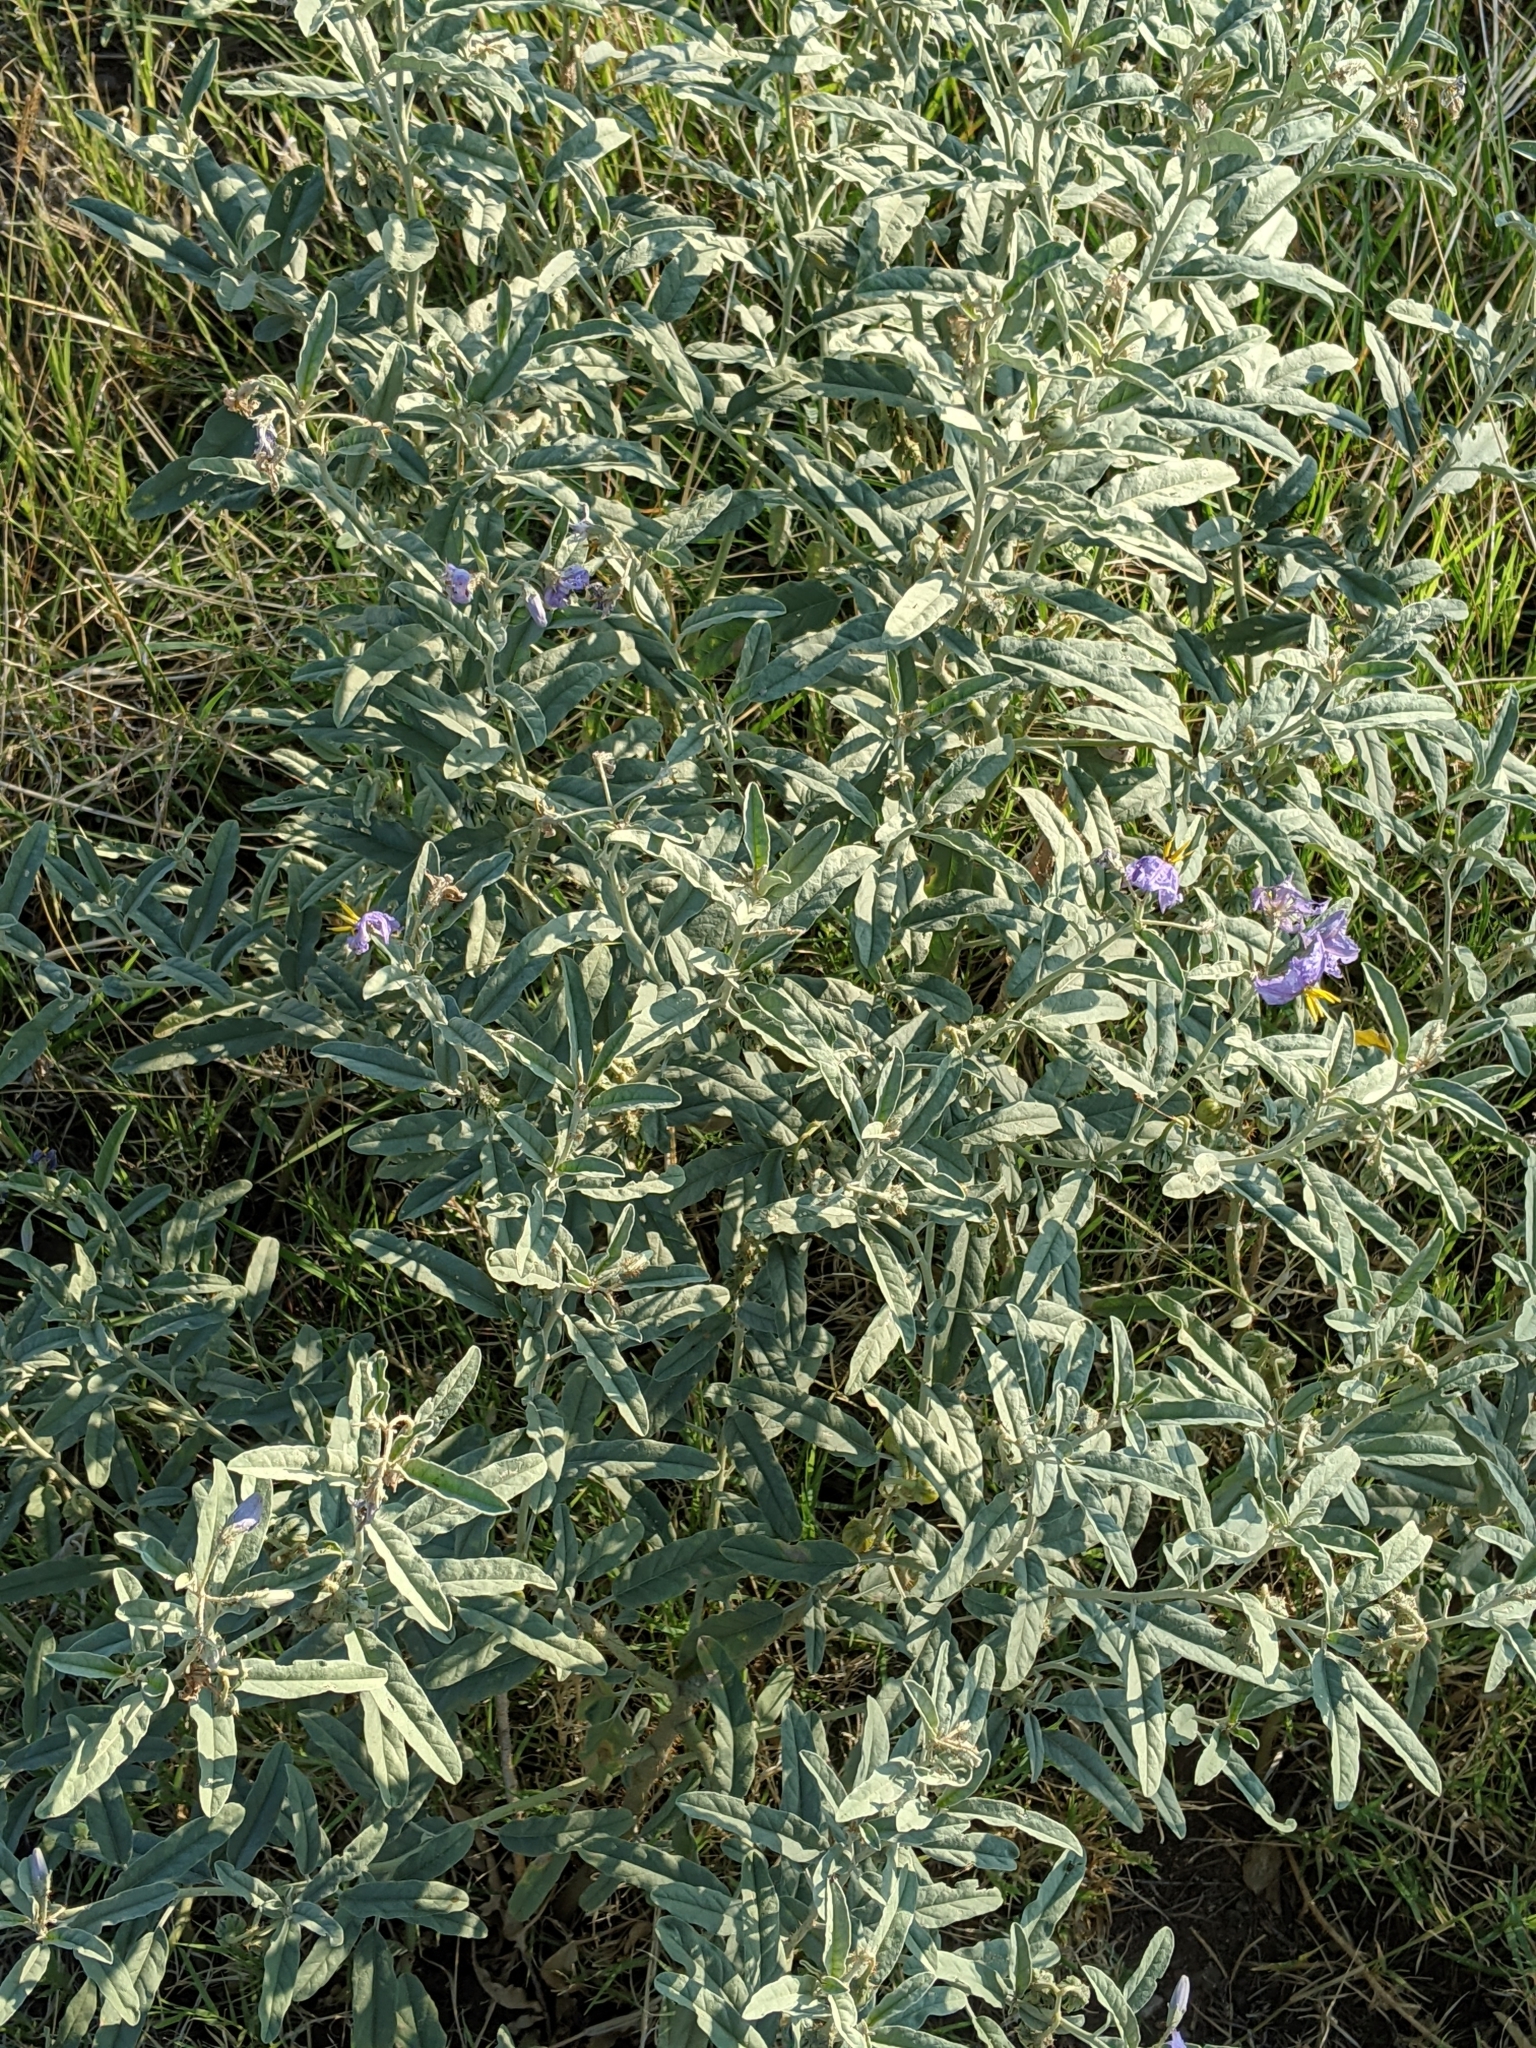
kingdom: Plantae
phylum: Tracheophyta
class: Magnoliopsida
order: Solanales
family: Solanaceae
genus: Solanum
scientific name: Solanum elaeagnifolium
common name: Silverleaf nightshade
